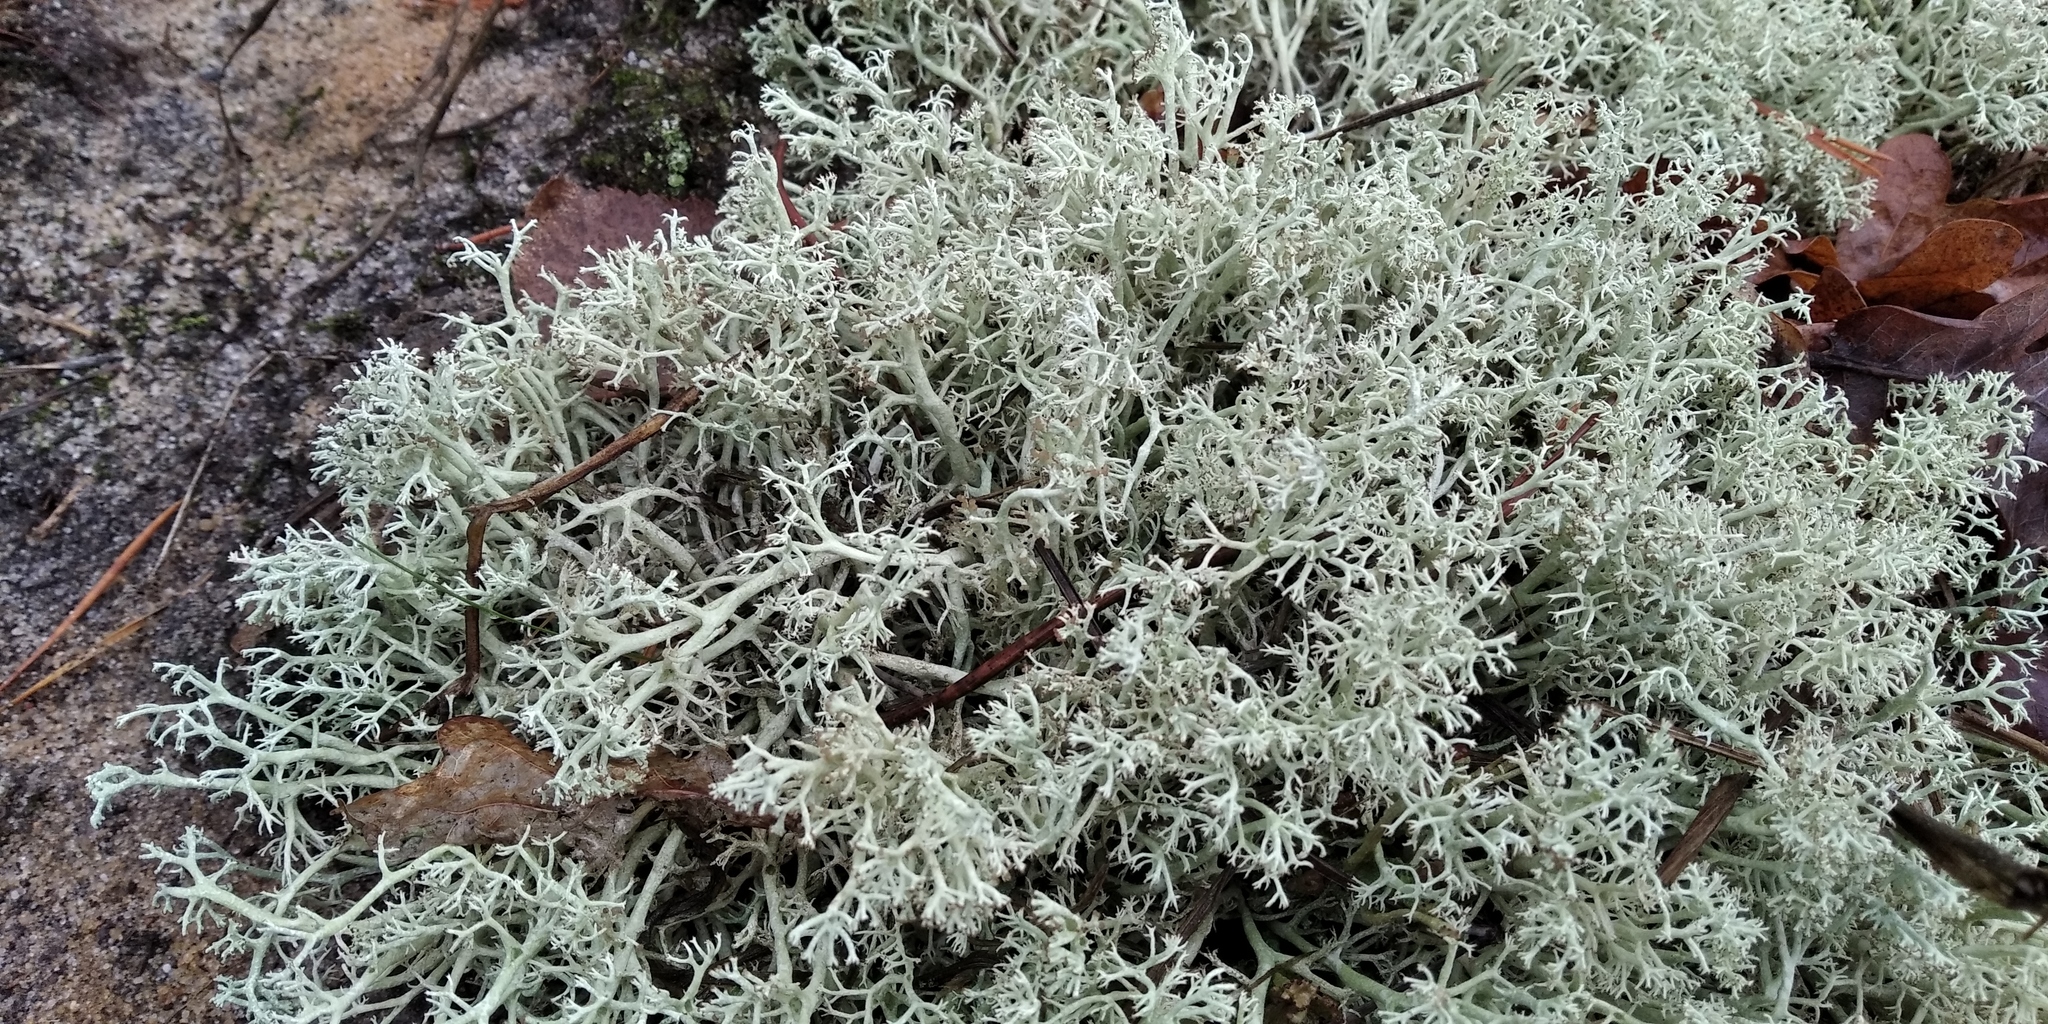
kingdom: Fungi
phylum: Ascomycota
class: Lecanoromycetes
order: Lecanorales
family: Cladoniaceae
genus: Cladonia
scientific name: Cladonia arbuscula
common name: Reindeer lichen
